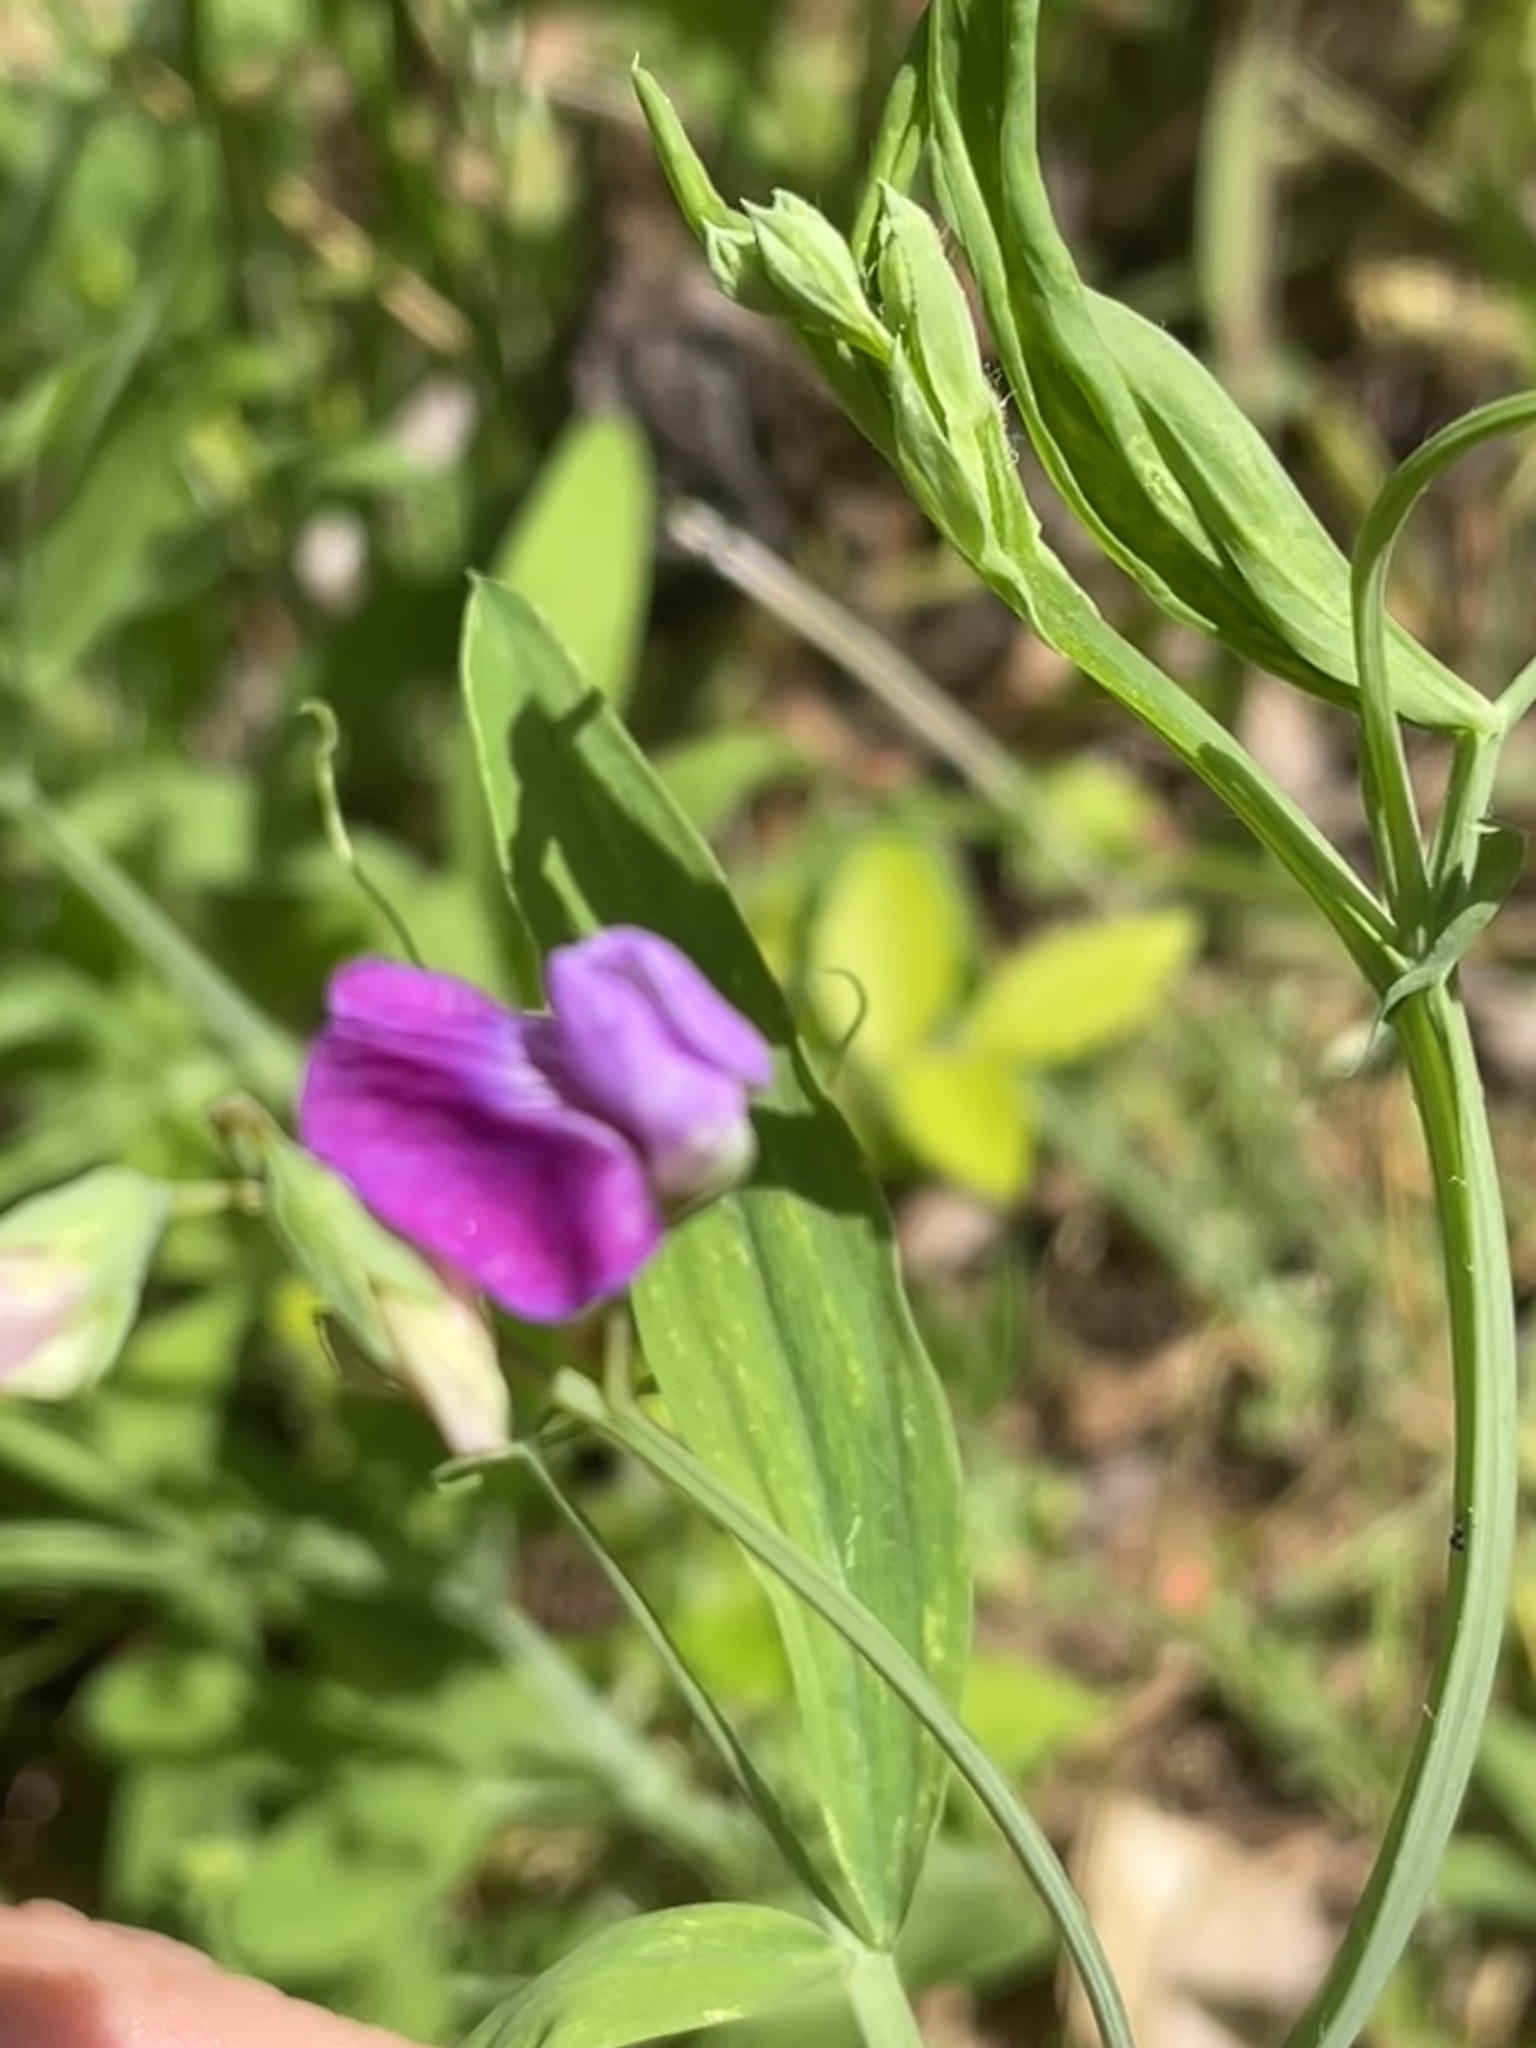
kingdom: Plantae
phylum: Tracheophyta
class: Magnoliopsida
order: Fabales
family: Fabaceae
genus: Lathyrus
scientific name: Lathyrus hirsutus
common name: Hairy vetchling
